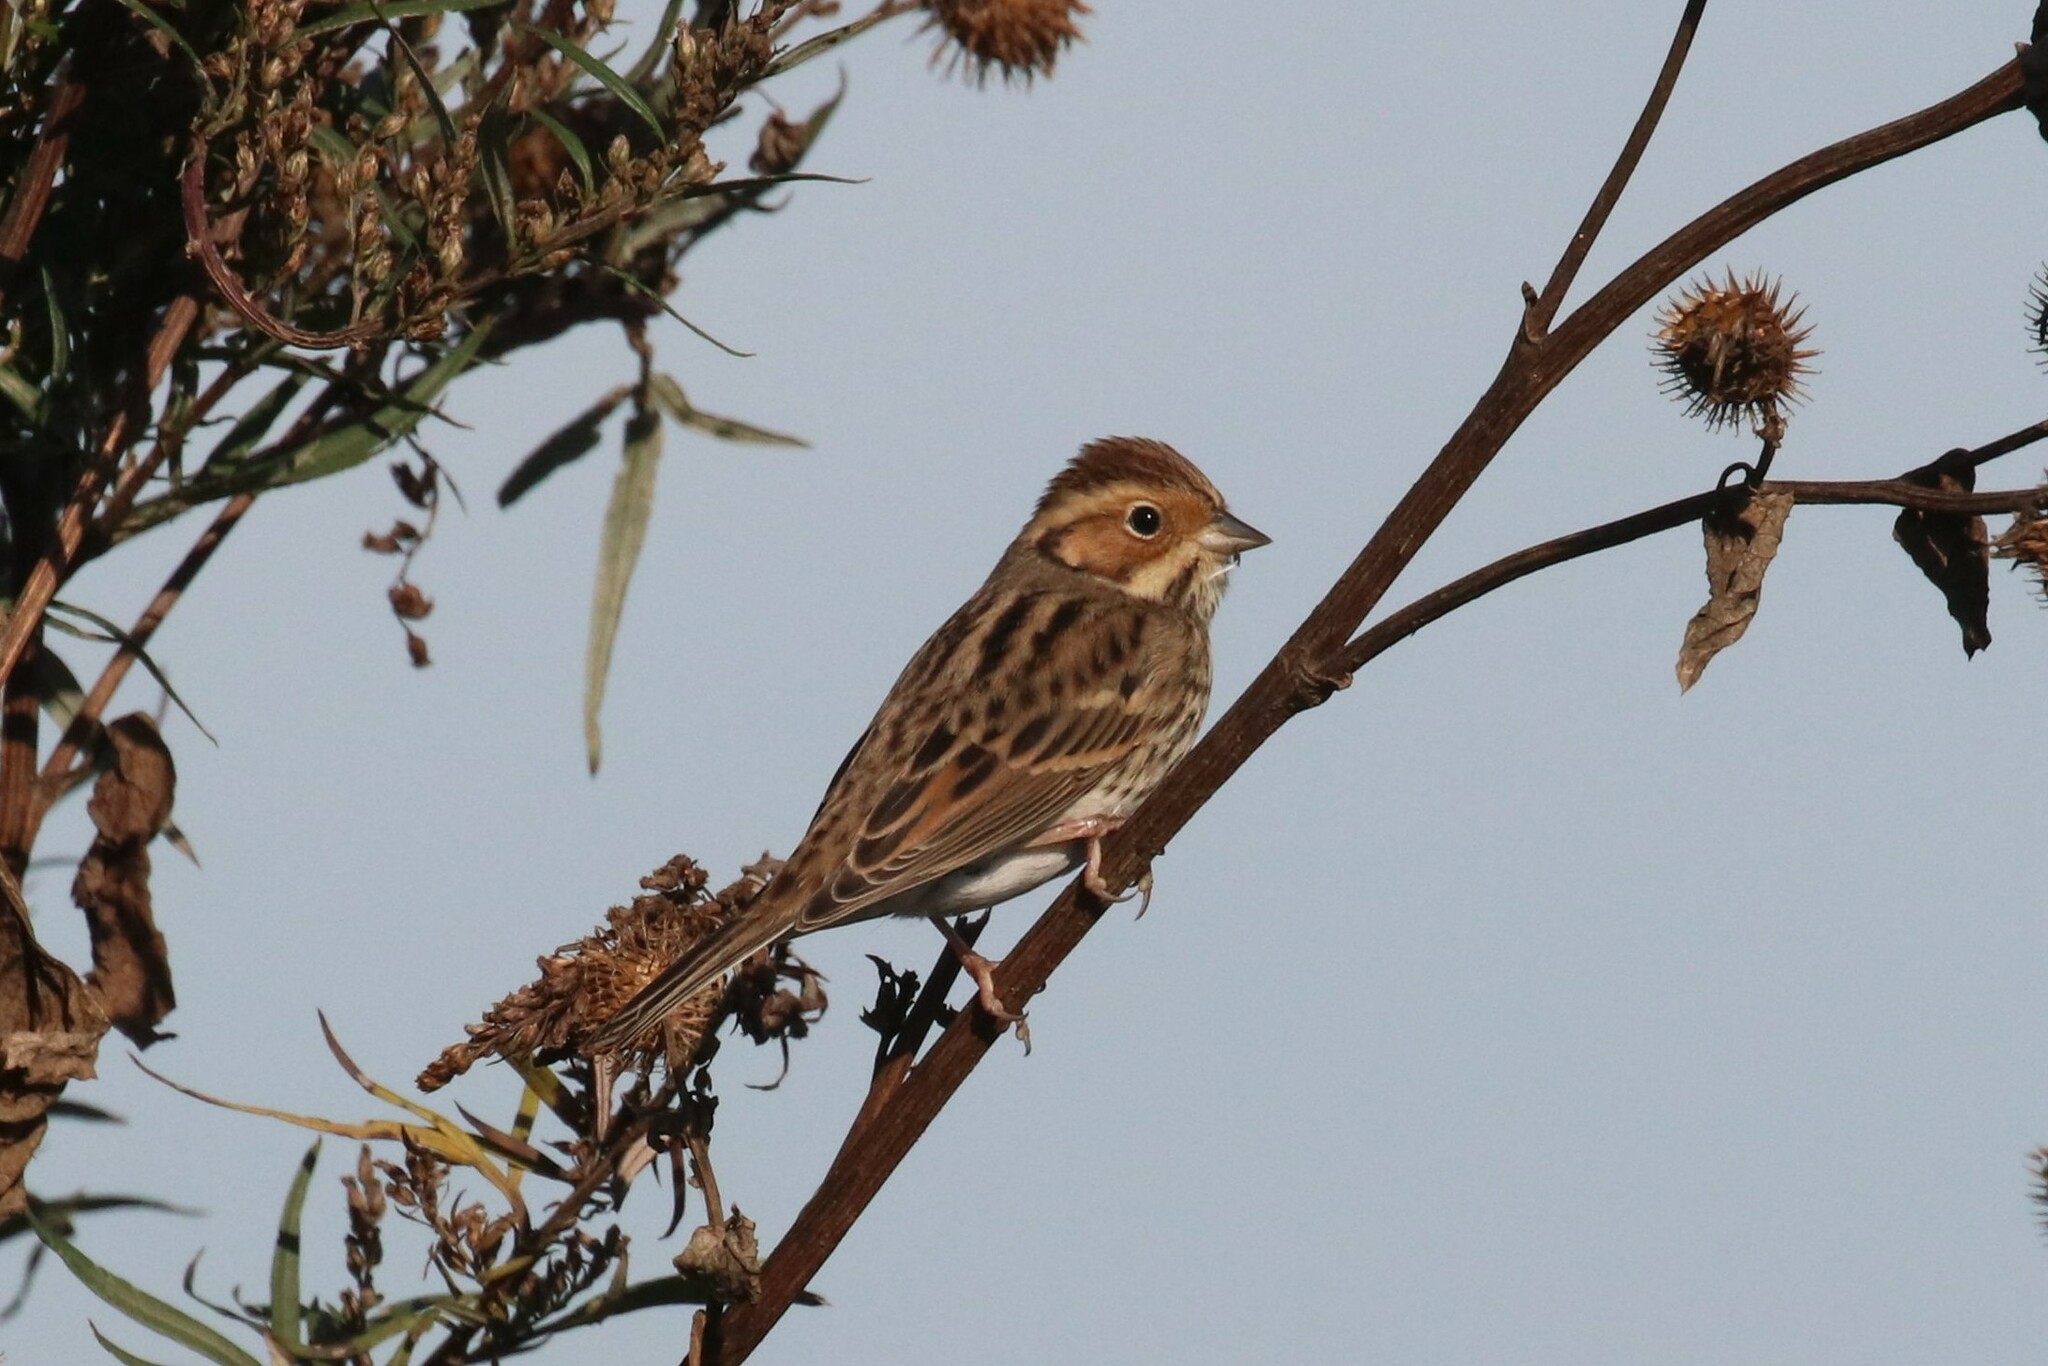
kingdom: Animalia
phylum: Chordata
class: Aves
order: Passeriformes
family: Emberizidae
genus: Emberiza
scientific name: Emberiza pusilla
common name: Little bunting
